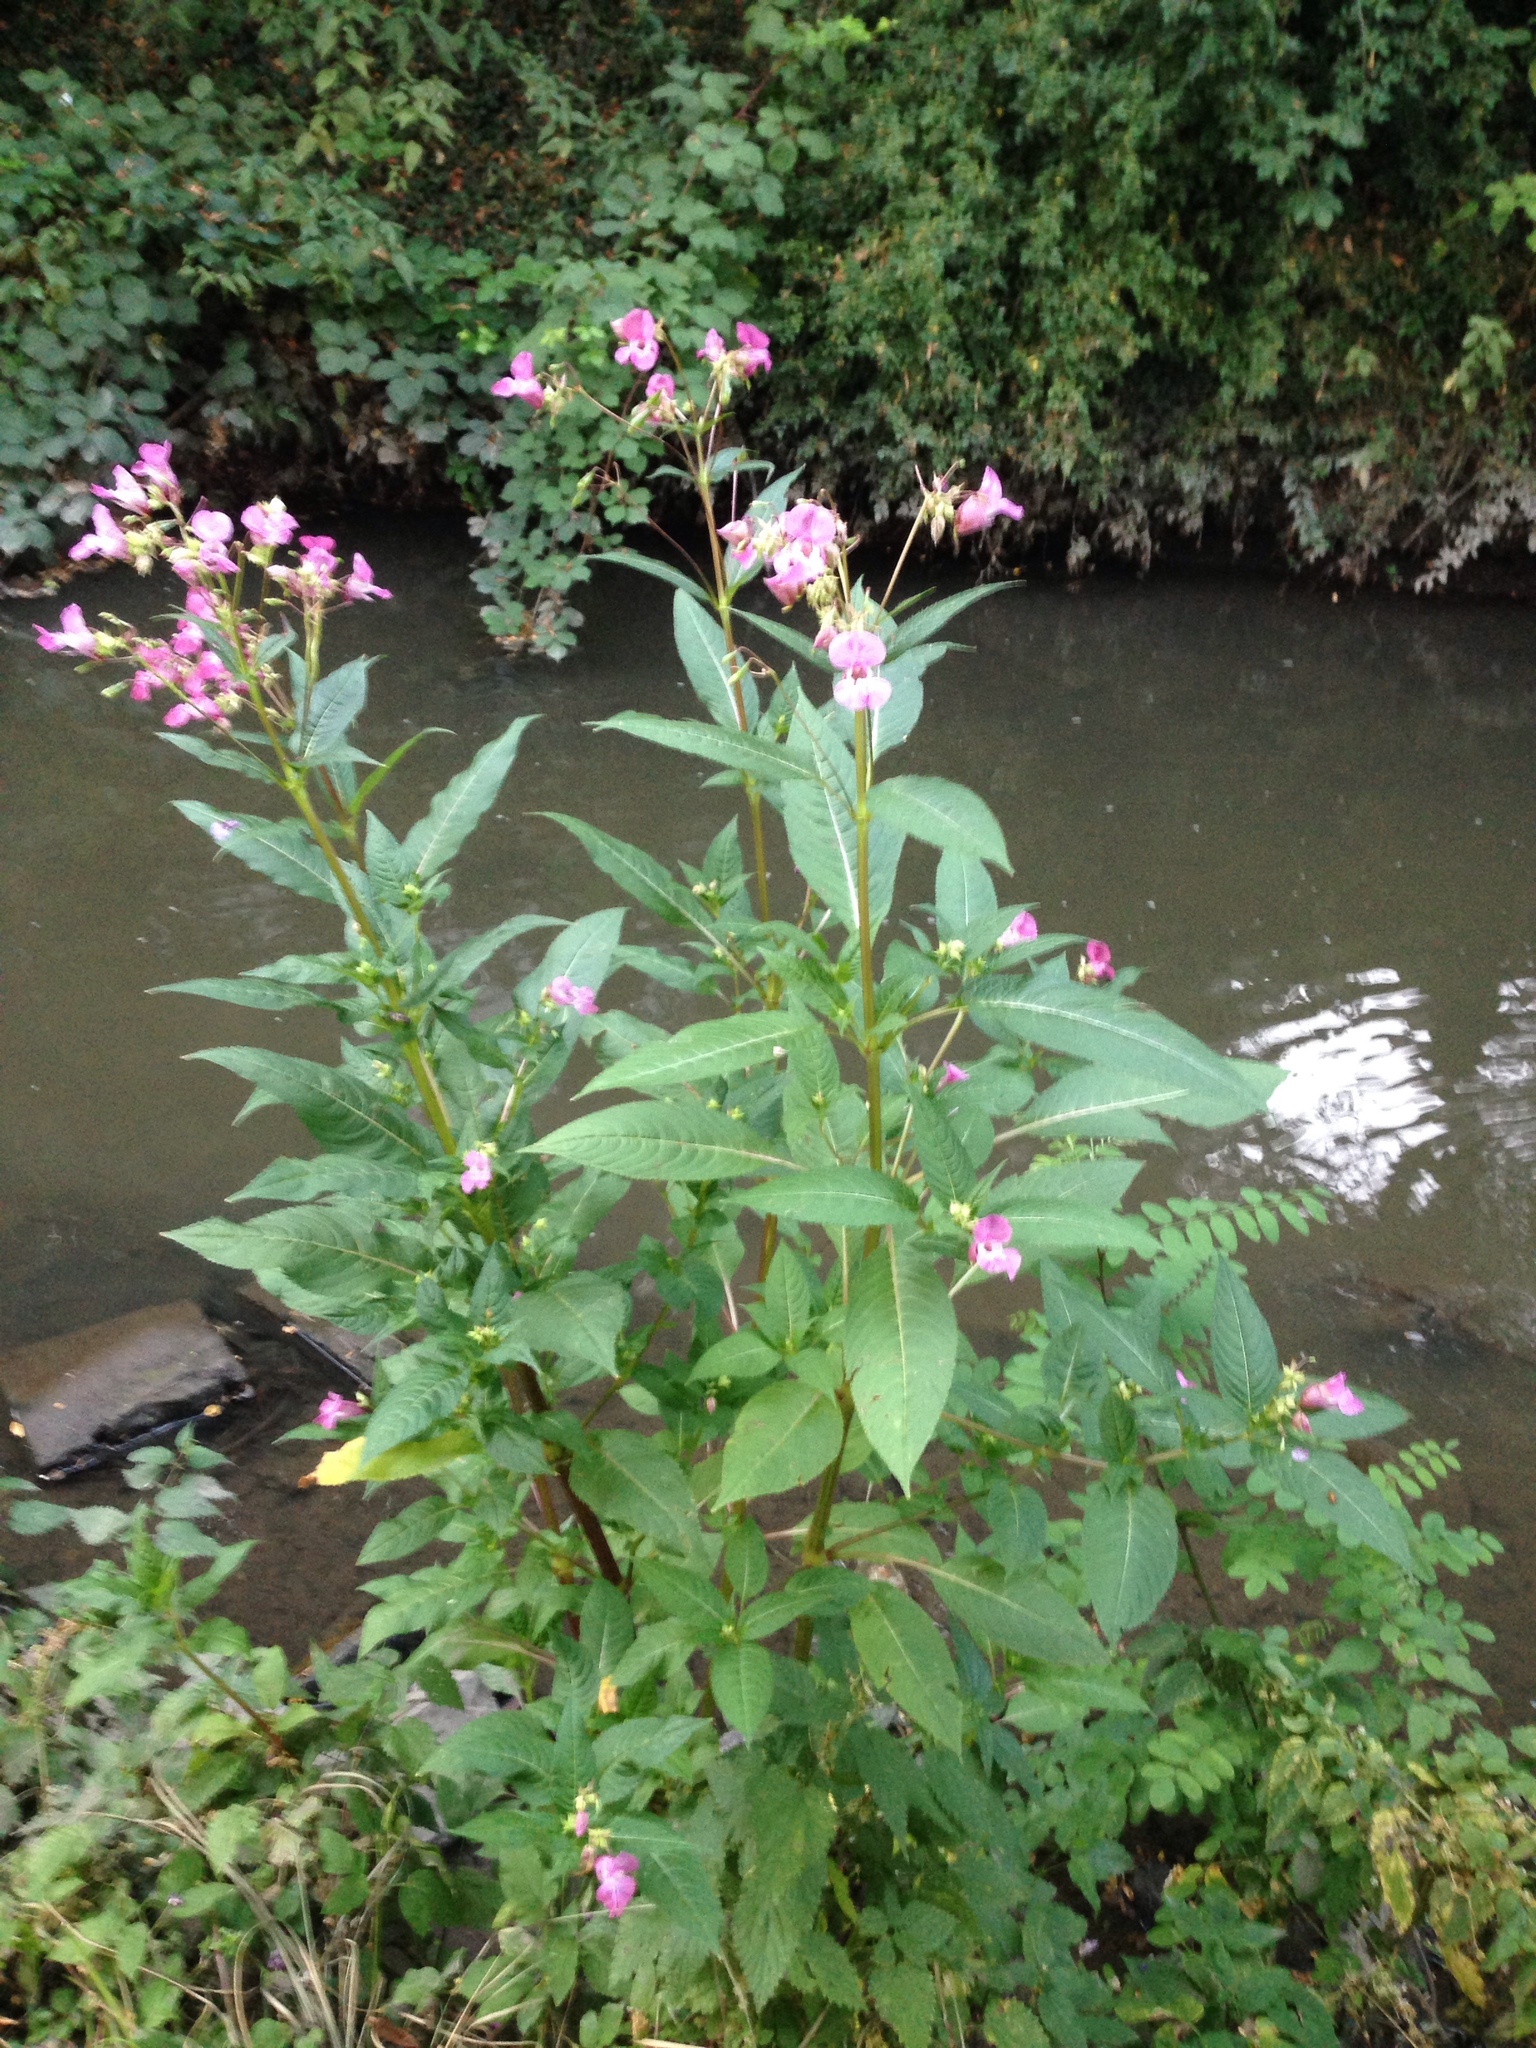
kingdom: Plantae
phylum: Tracheophyta
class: Magnoliopsida
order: Ericales
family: Balsaminaceae
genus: Impatiens
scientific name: Impatiens glandulifera
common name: Himalayan balsam
